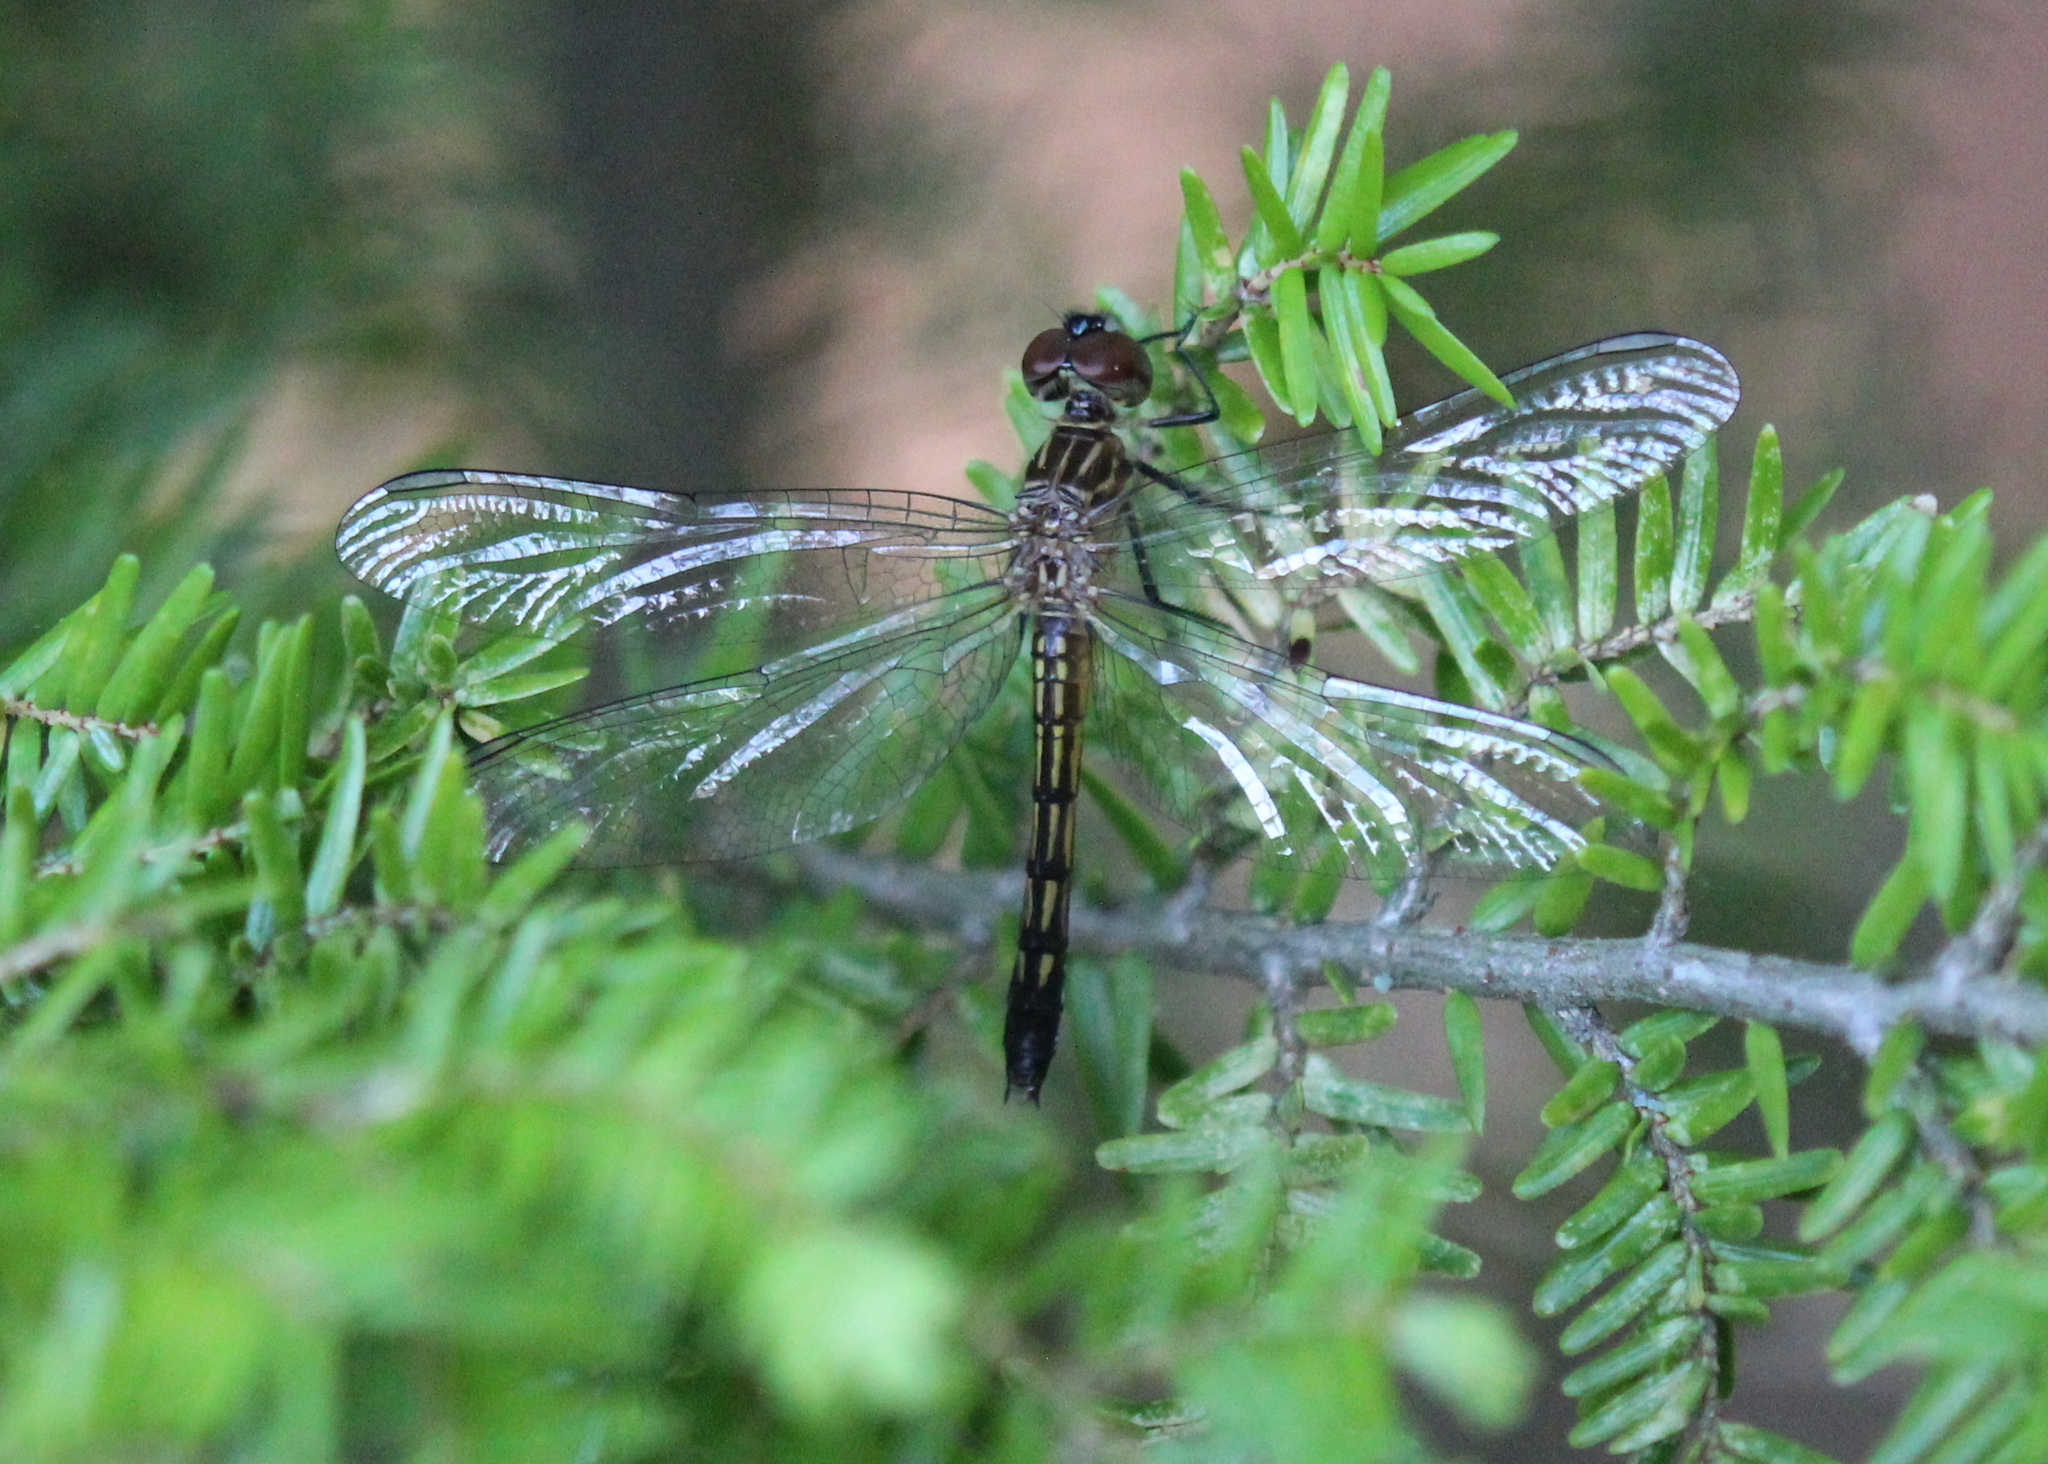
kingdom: Animalia
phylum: Arthropoda
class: Insecta
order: Odonata
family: Libellulidae
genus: Pachydiplax
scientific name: Pachydiplax longipennis
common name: Blue dasher
